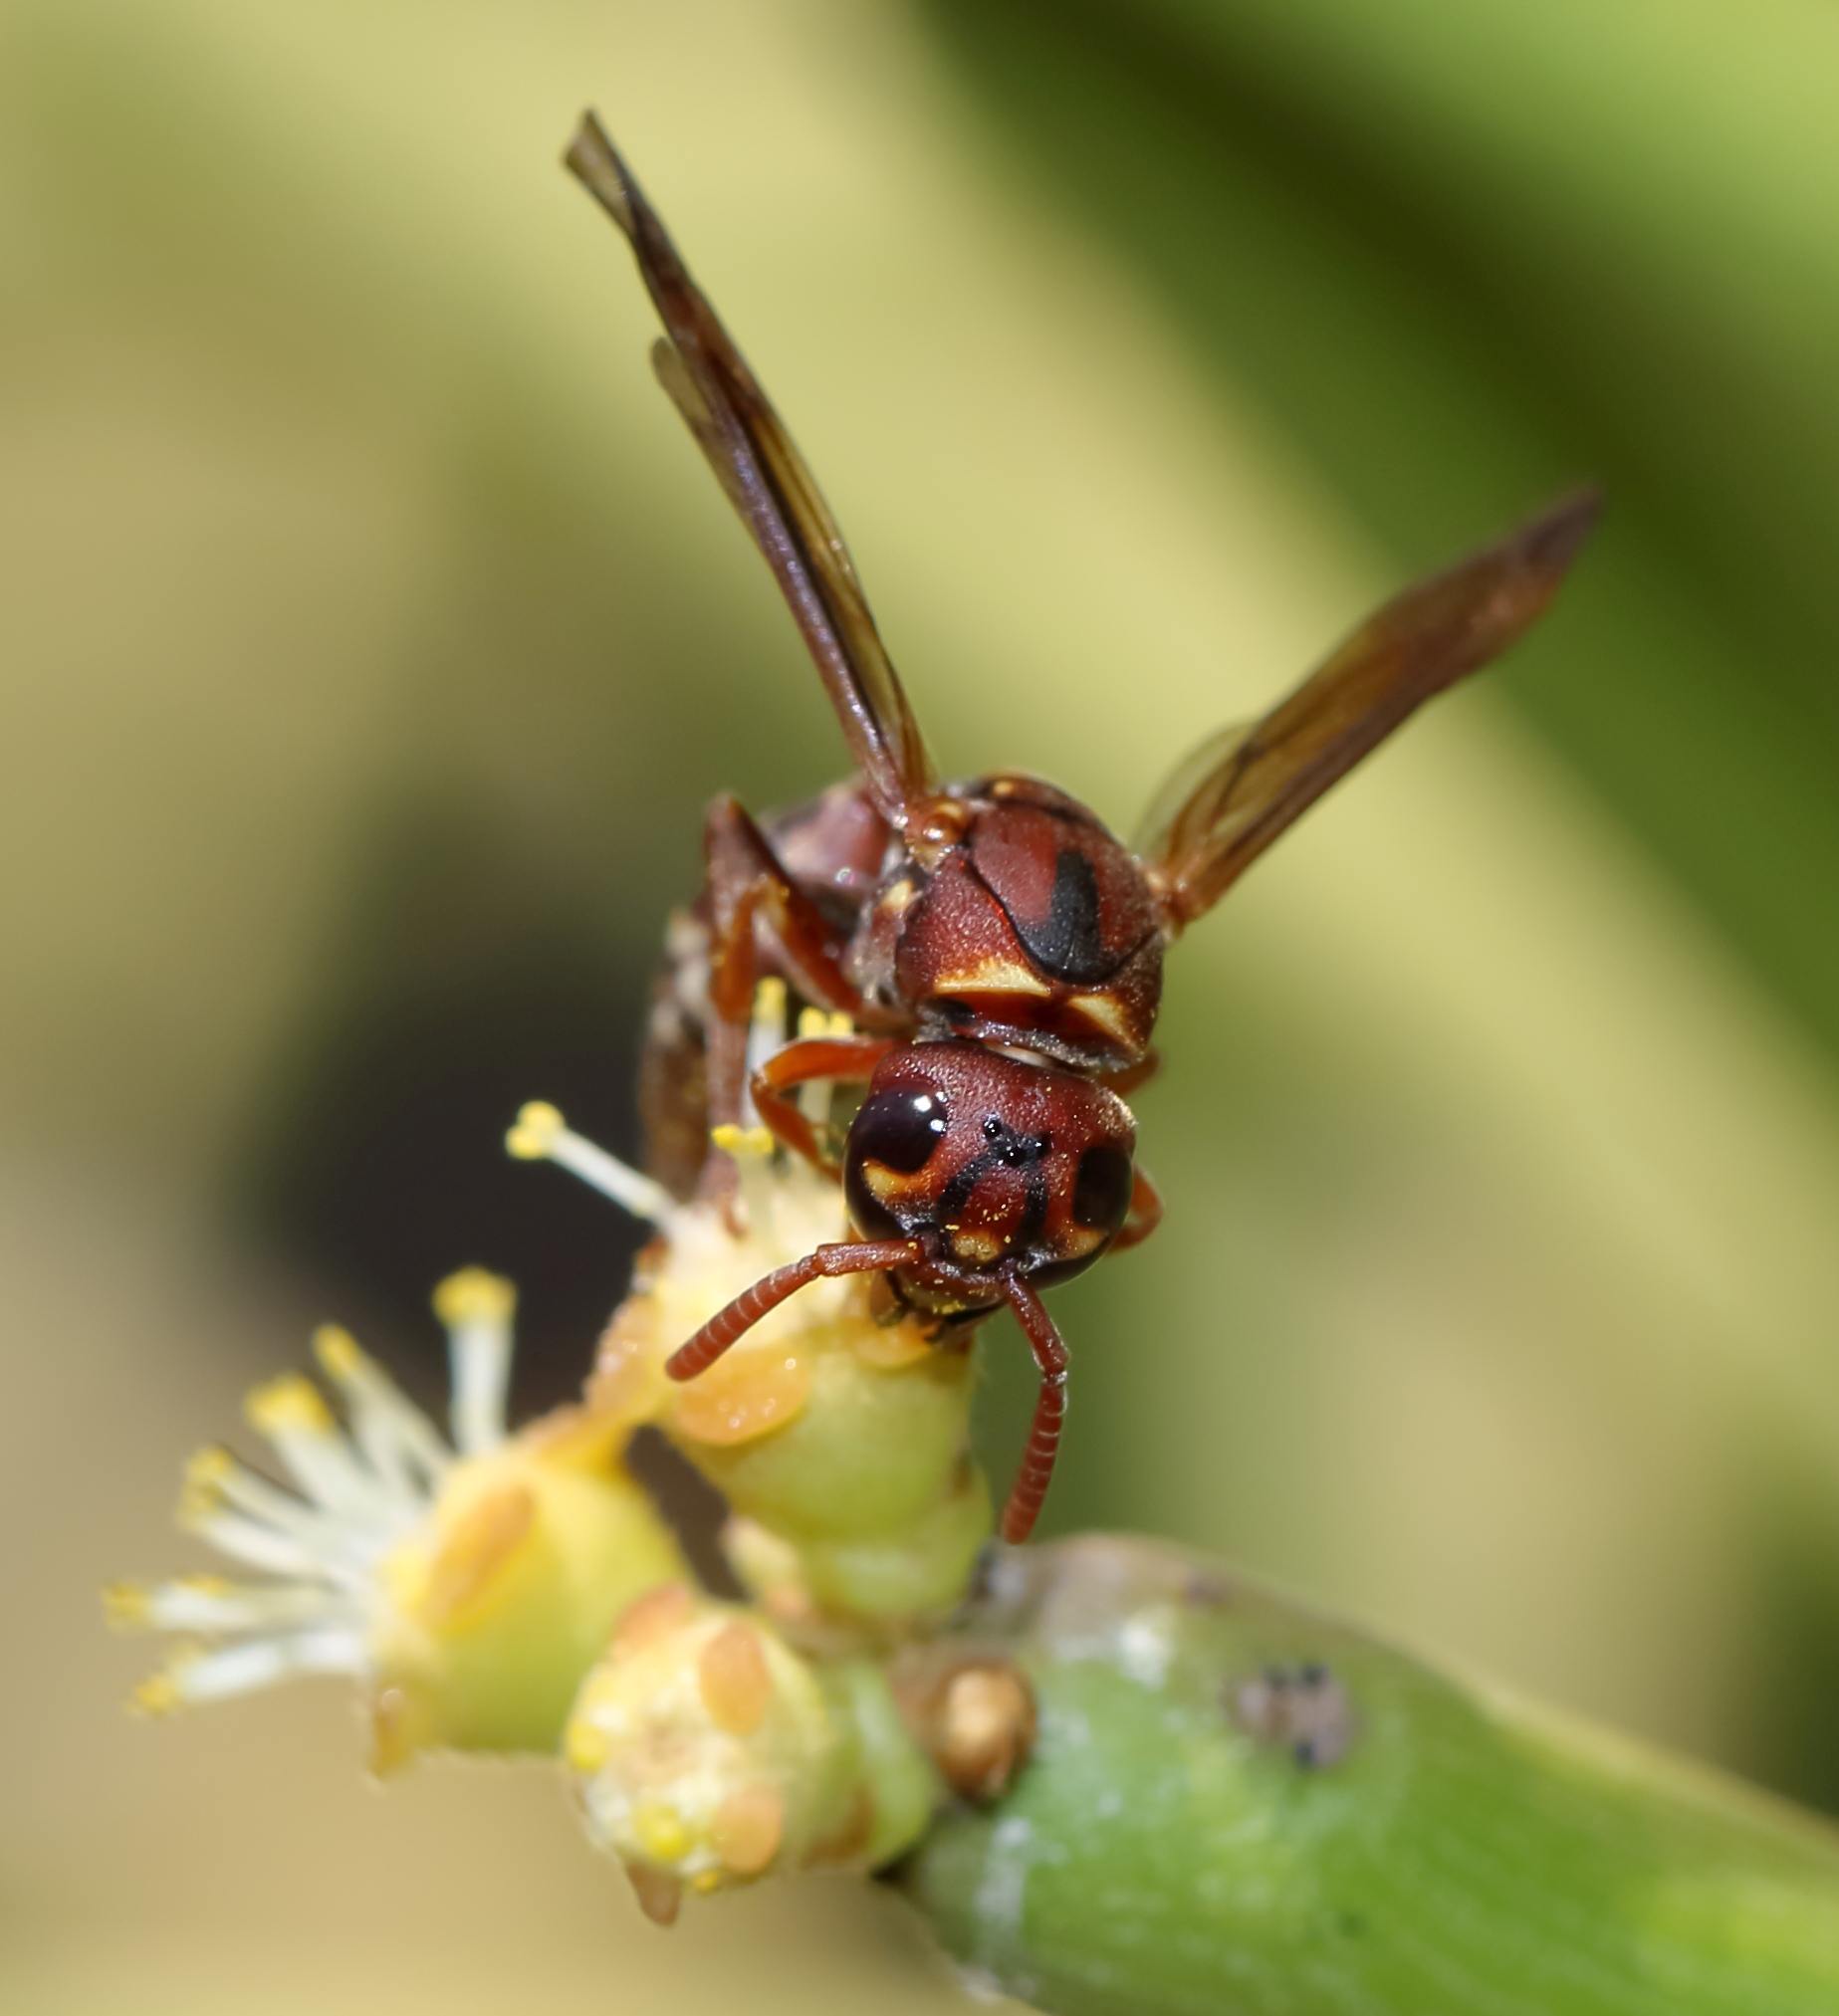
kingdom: Animalia
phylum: Arthropoda
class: Insecta
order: Hymenoptera
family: Eumenidae
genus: Antodynerus
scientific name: Antodynerus
